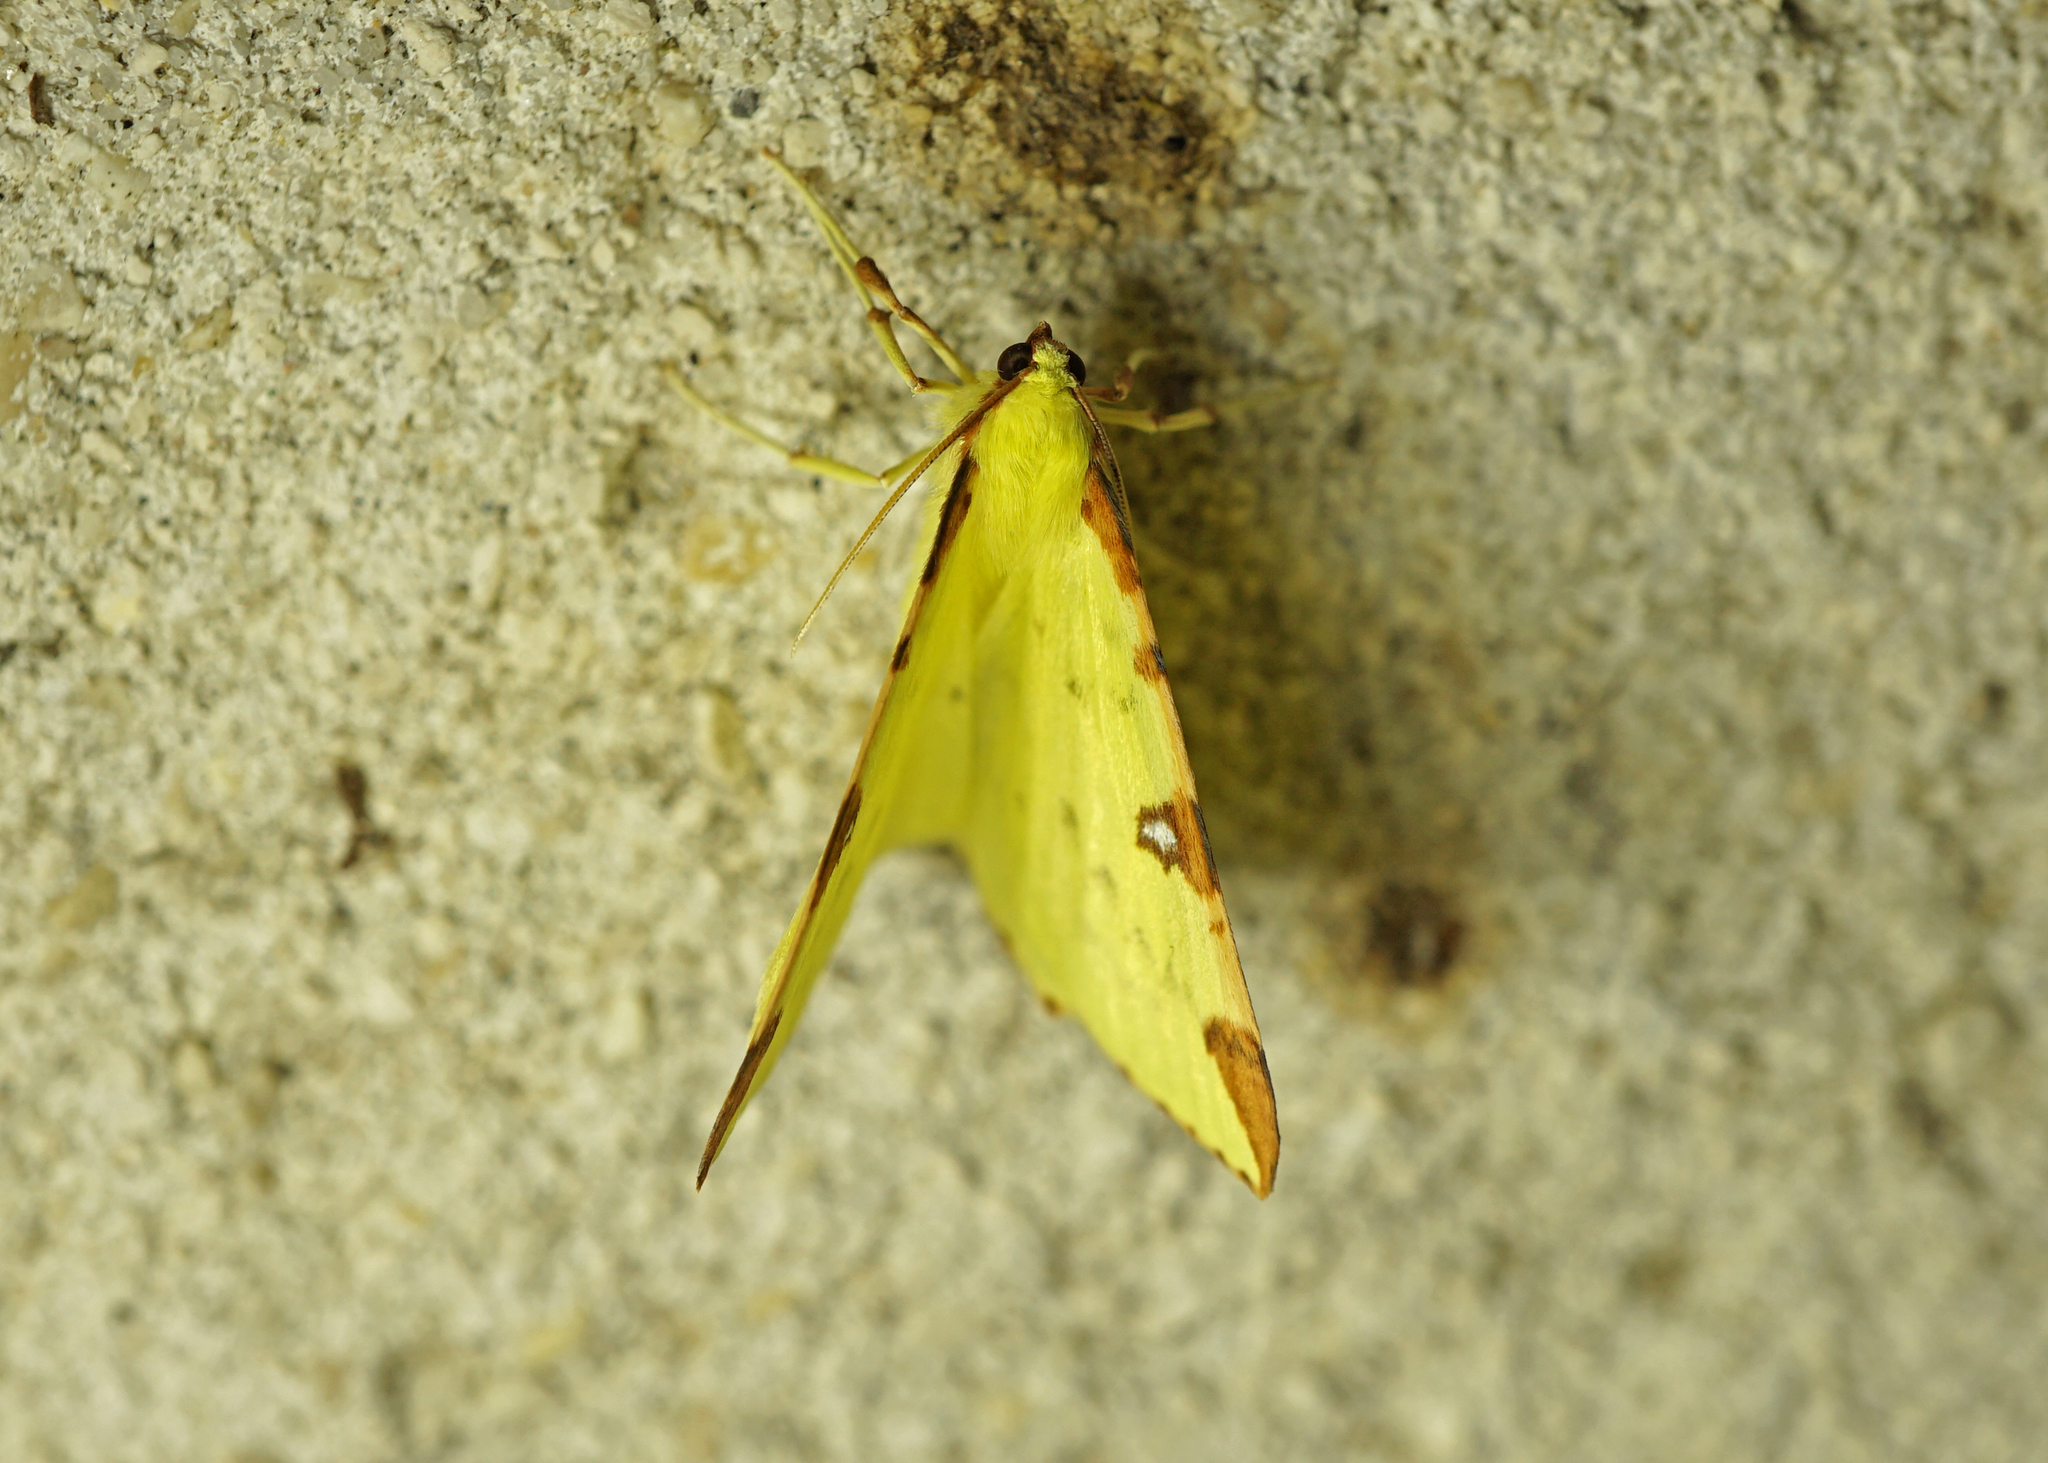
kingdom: Animalia
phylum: Arthropoda
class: Insecta
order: Lepidoptera
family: Geometridae
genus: Opisthograptis
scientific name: Opisthograptis luteolata
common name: Brimstone moth
